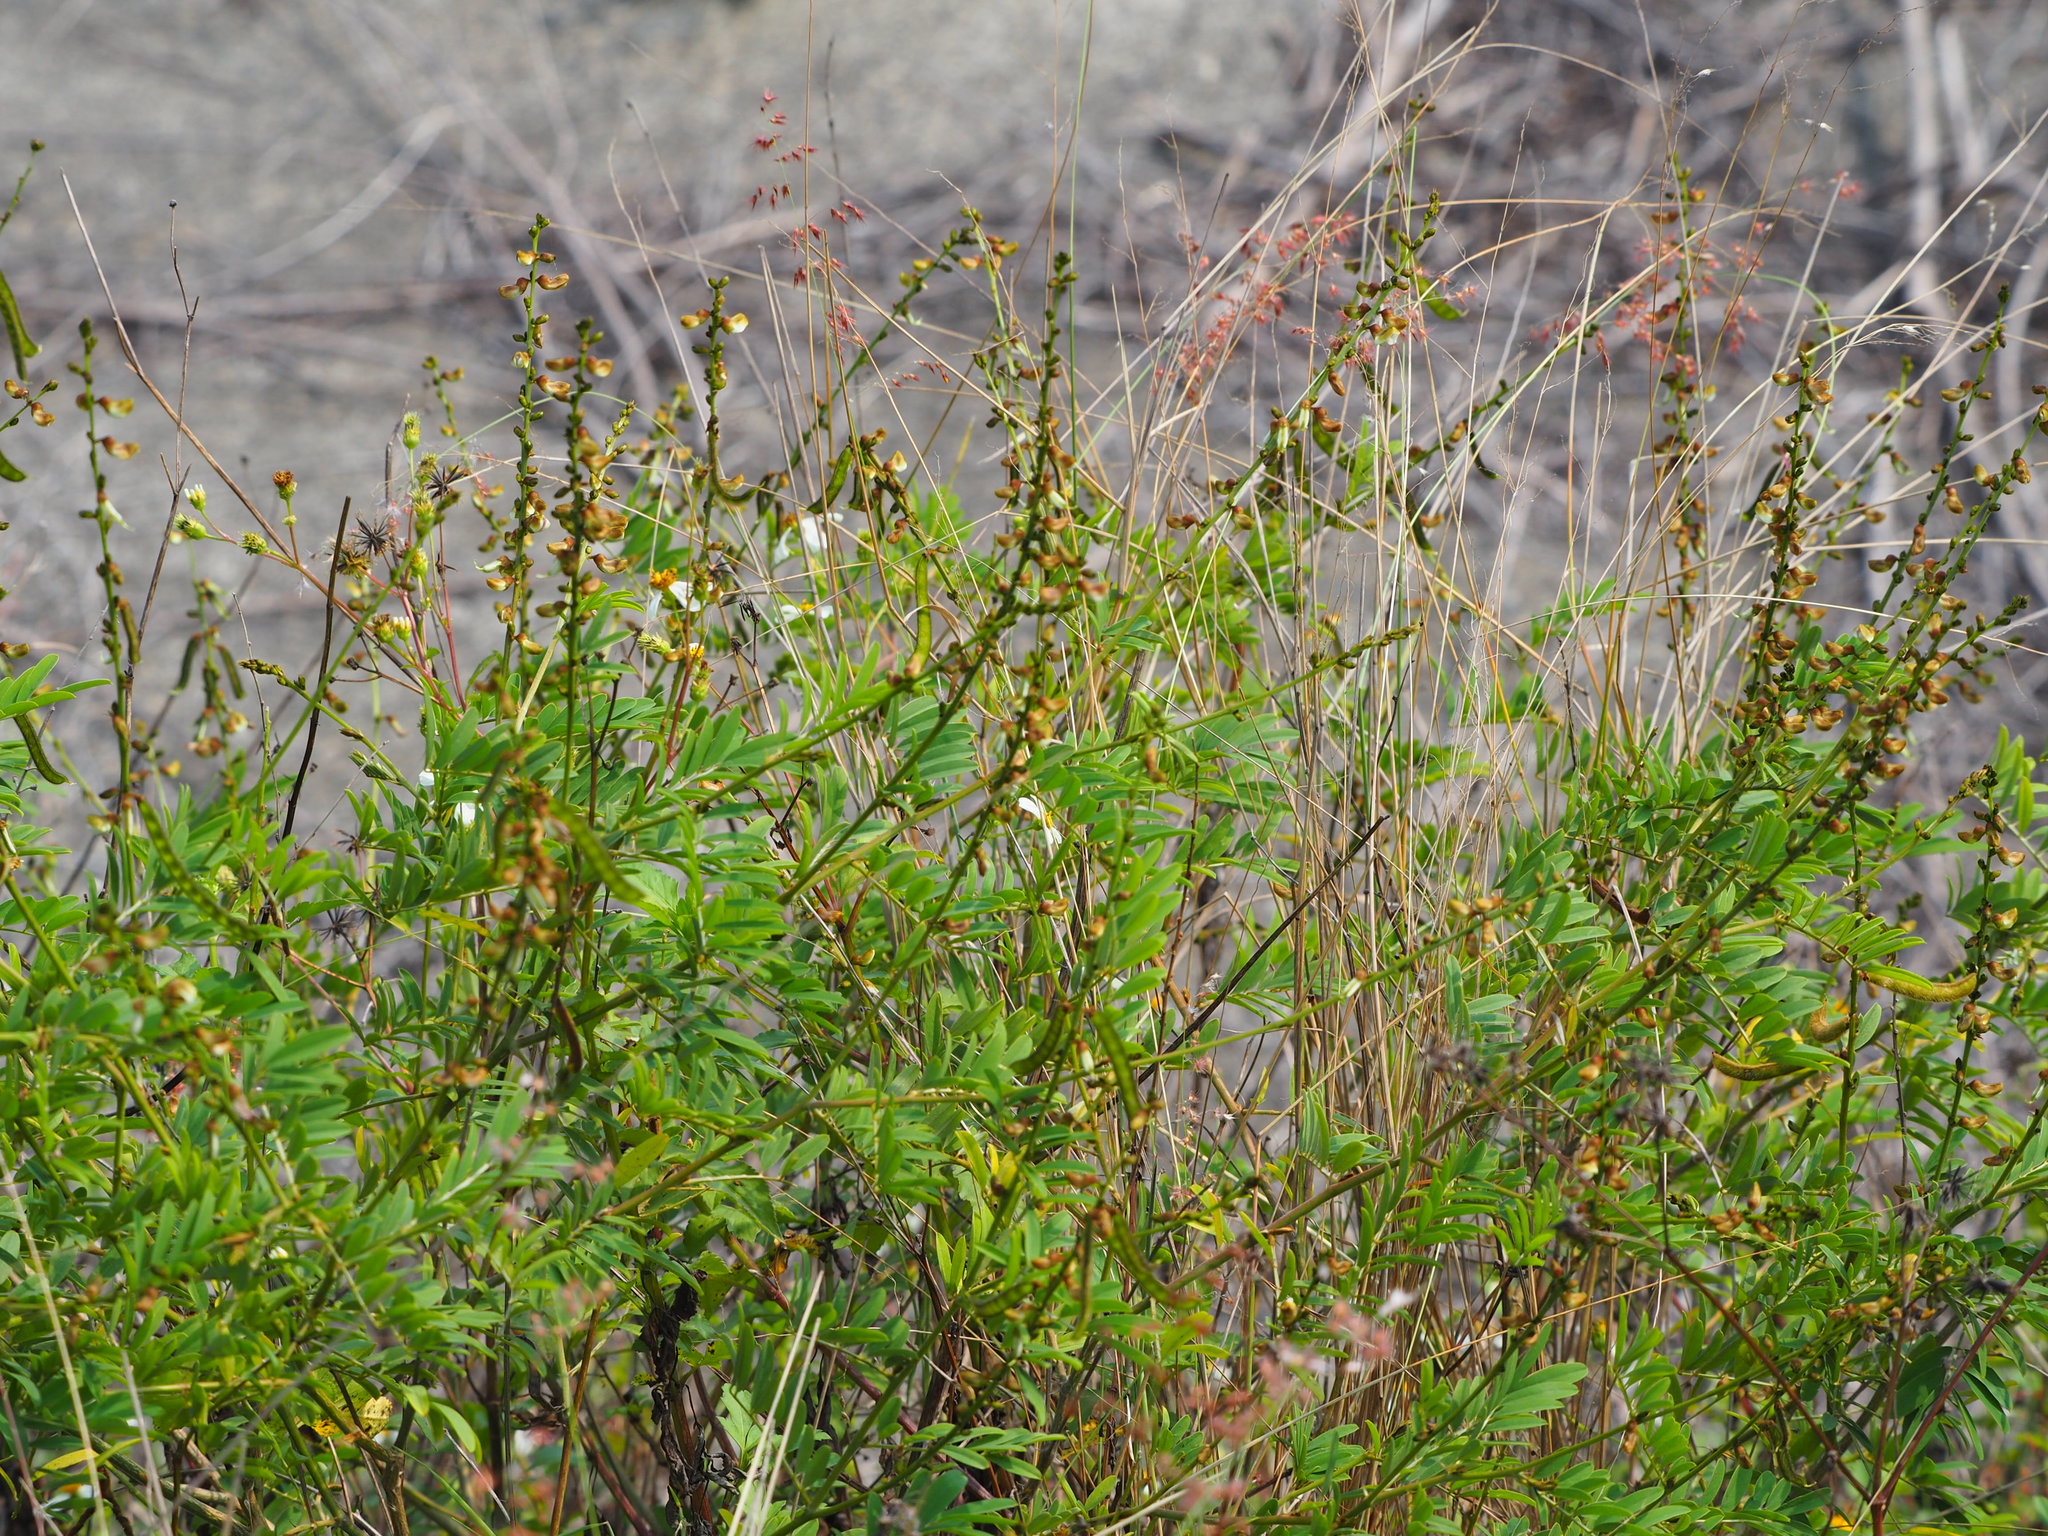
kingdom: Plantae
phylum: Tracheophyta
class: Magnoliopsida
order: Fabales
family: Fabaceae
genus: Tephrosia
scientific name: Tephrosia noctiflora
